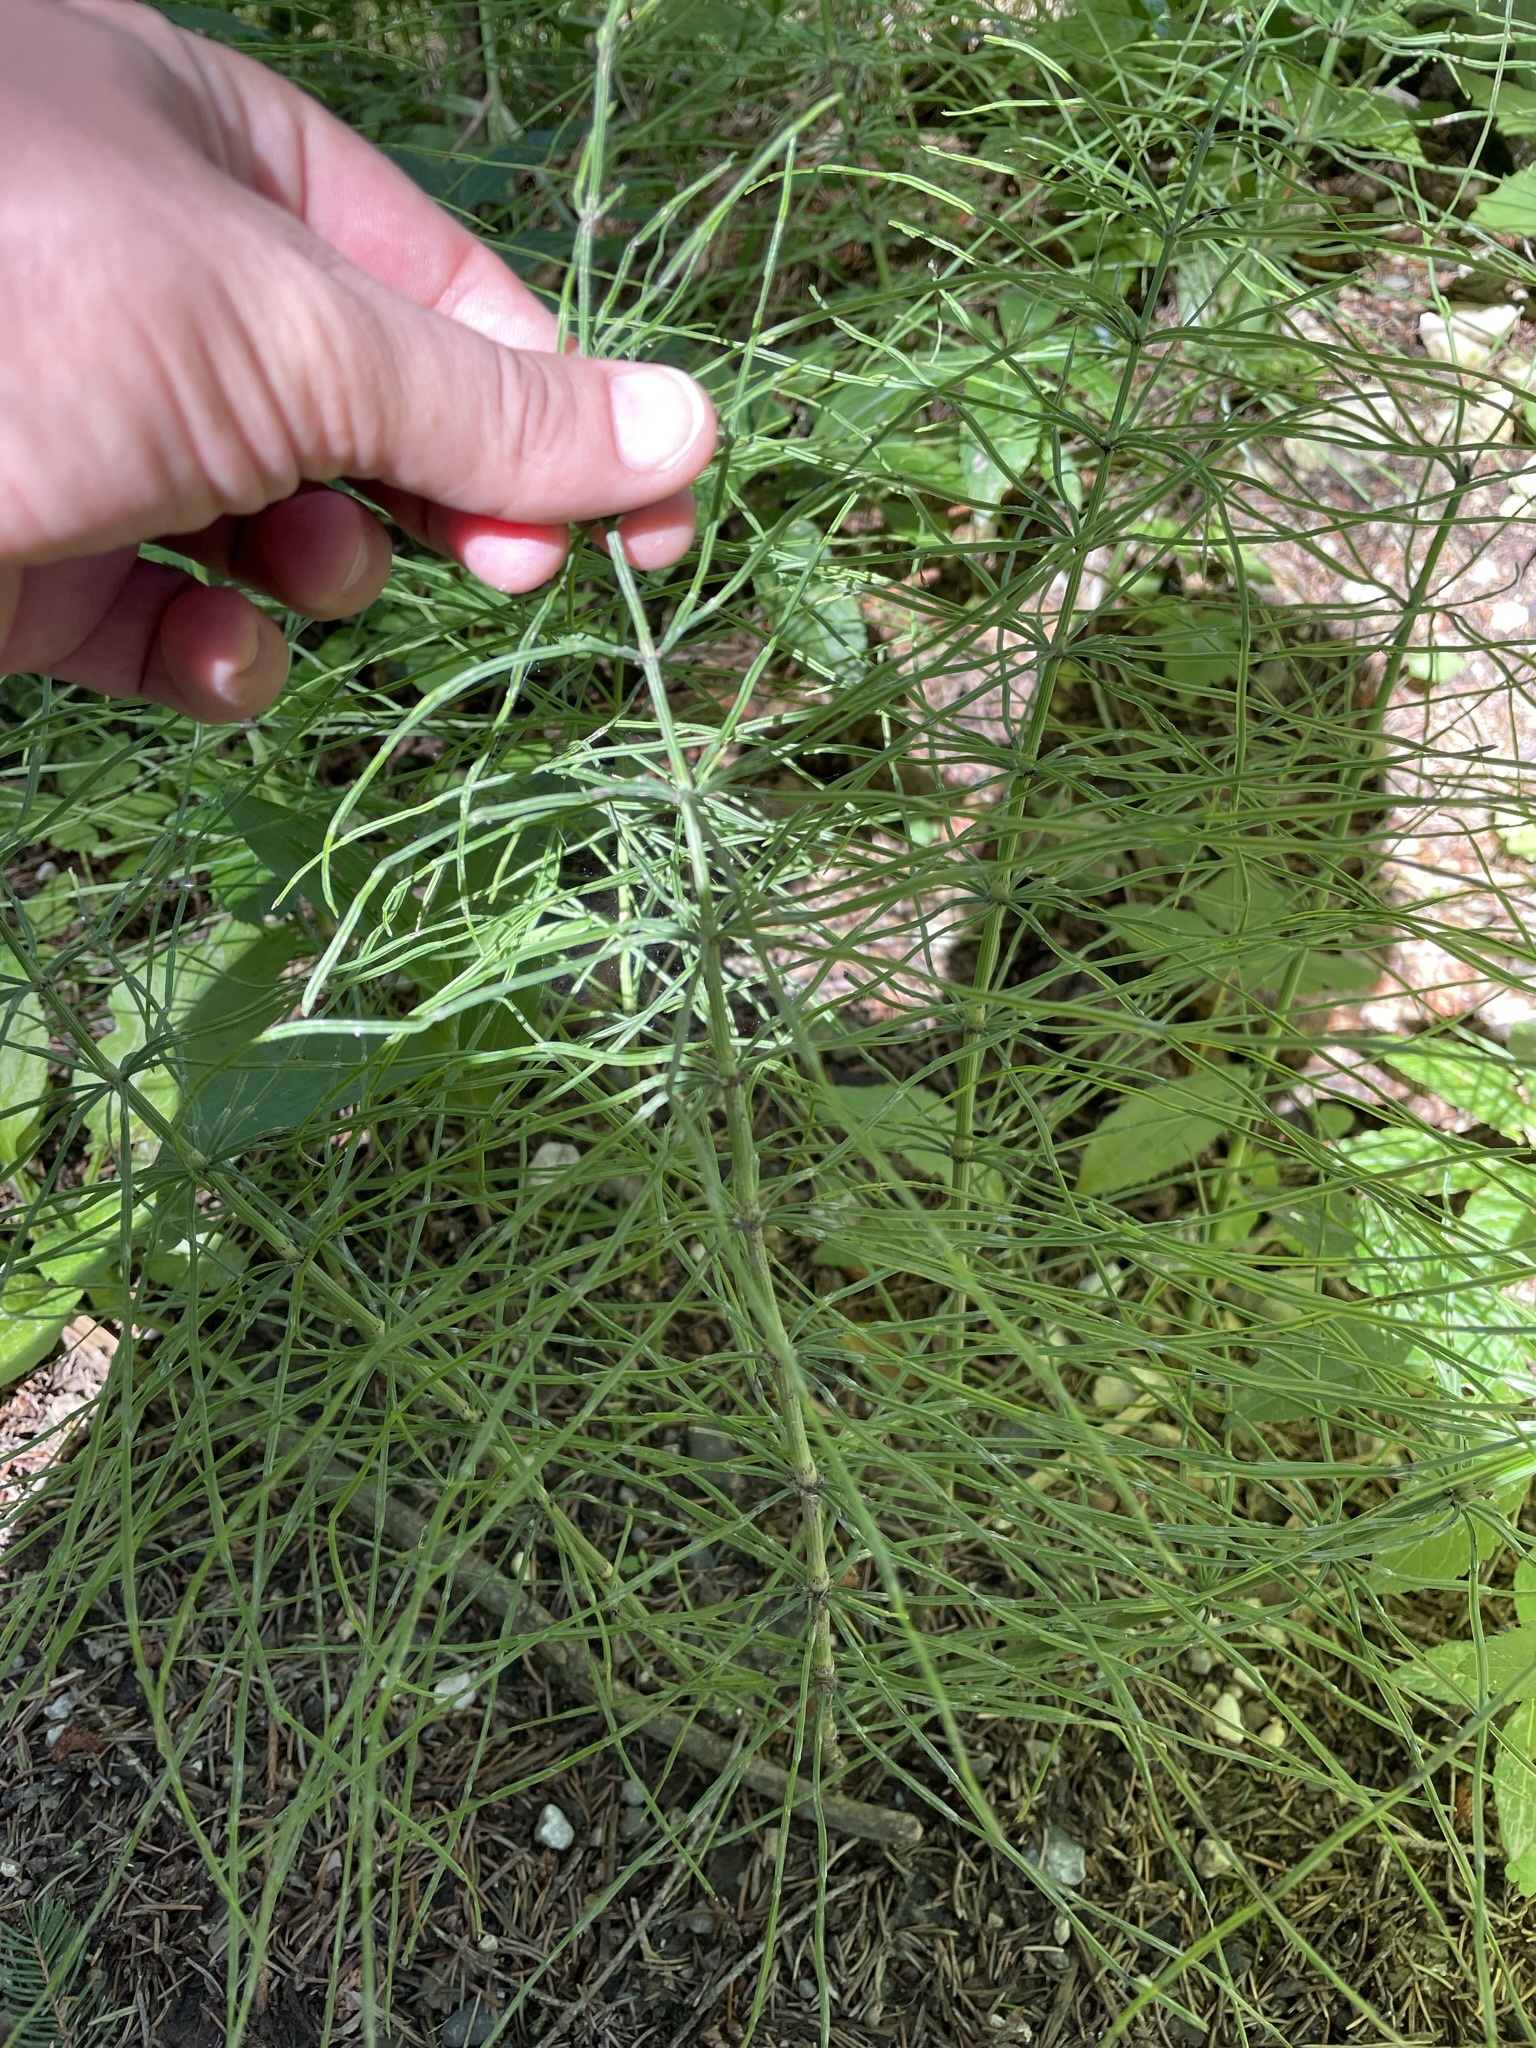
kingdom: Plantae
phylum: Tracheophyta
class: Polypodiopsida
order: Equisetales
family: Equisetaceae
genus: Equisetum
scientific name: Equisetum arvense
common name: Field horsetail
